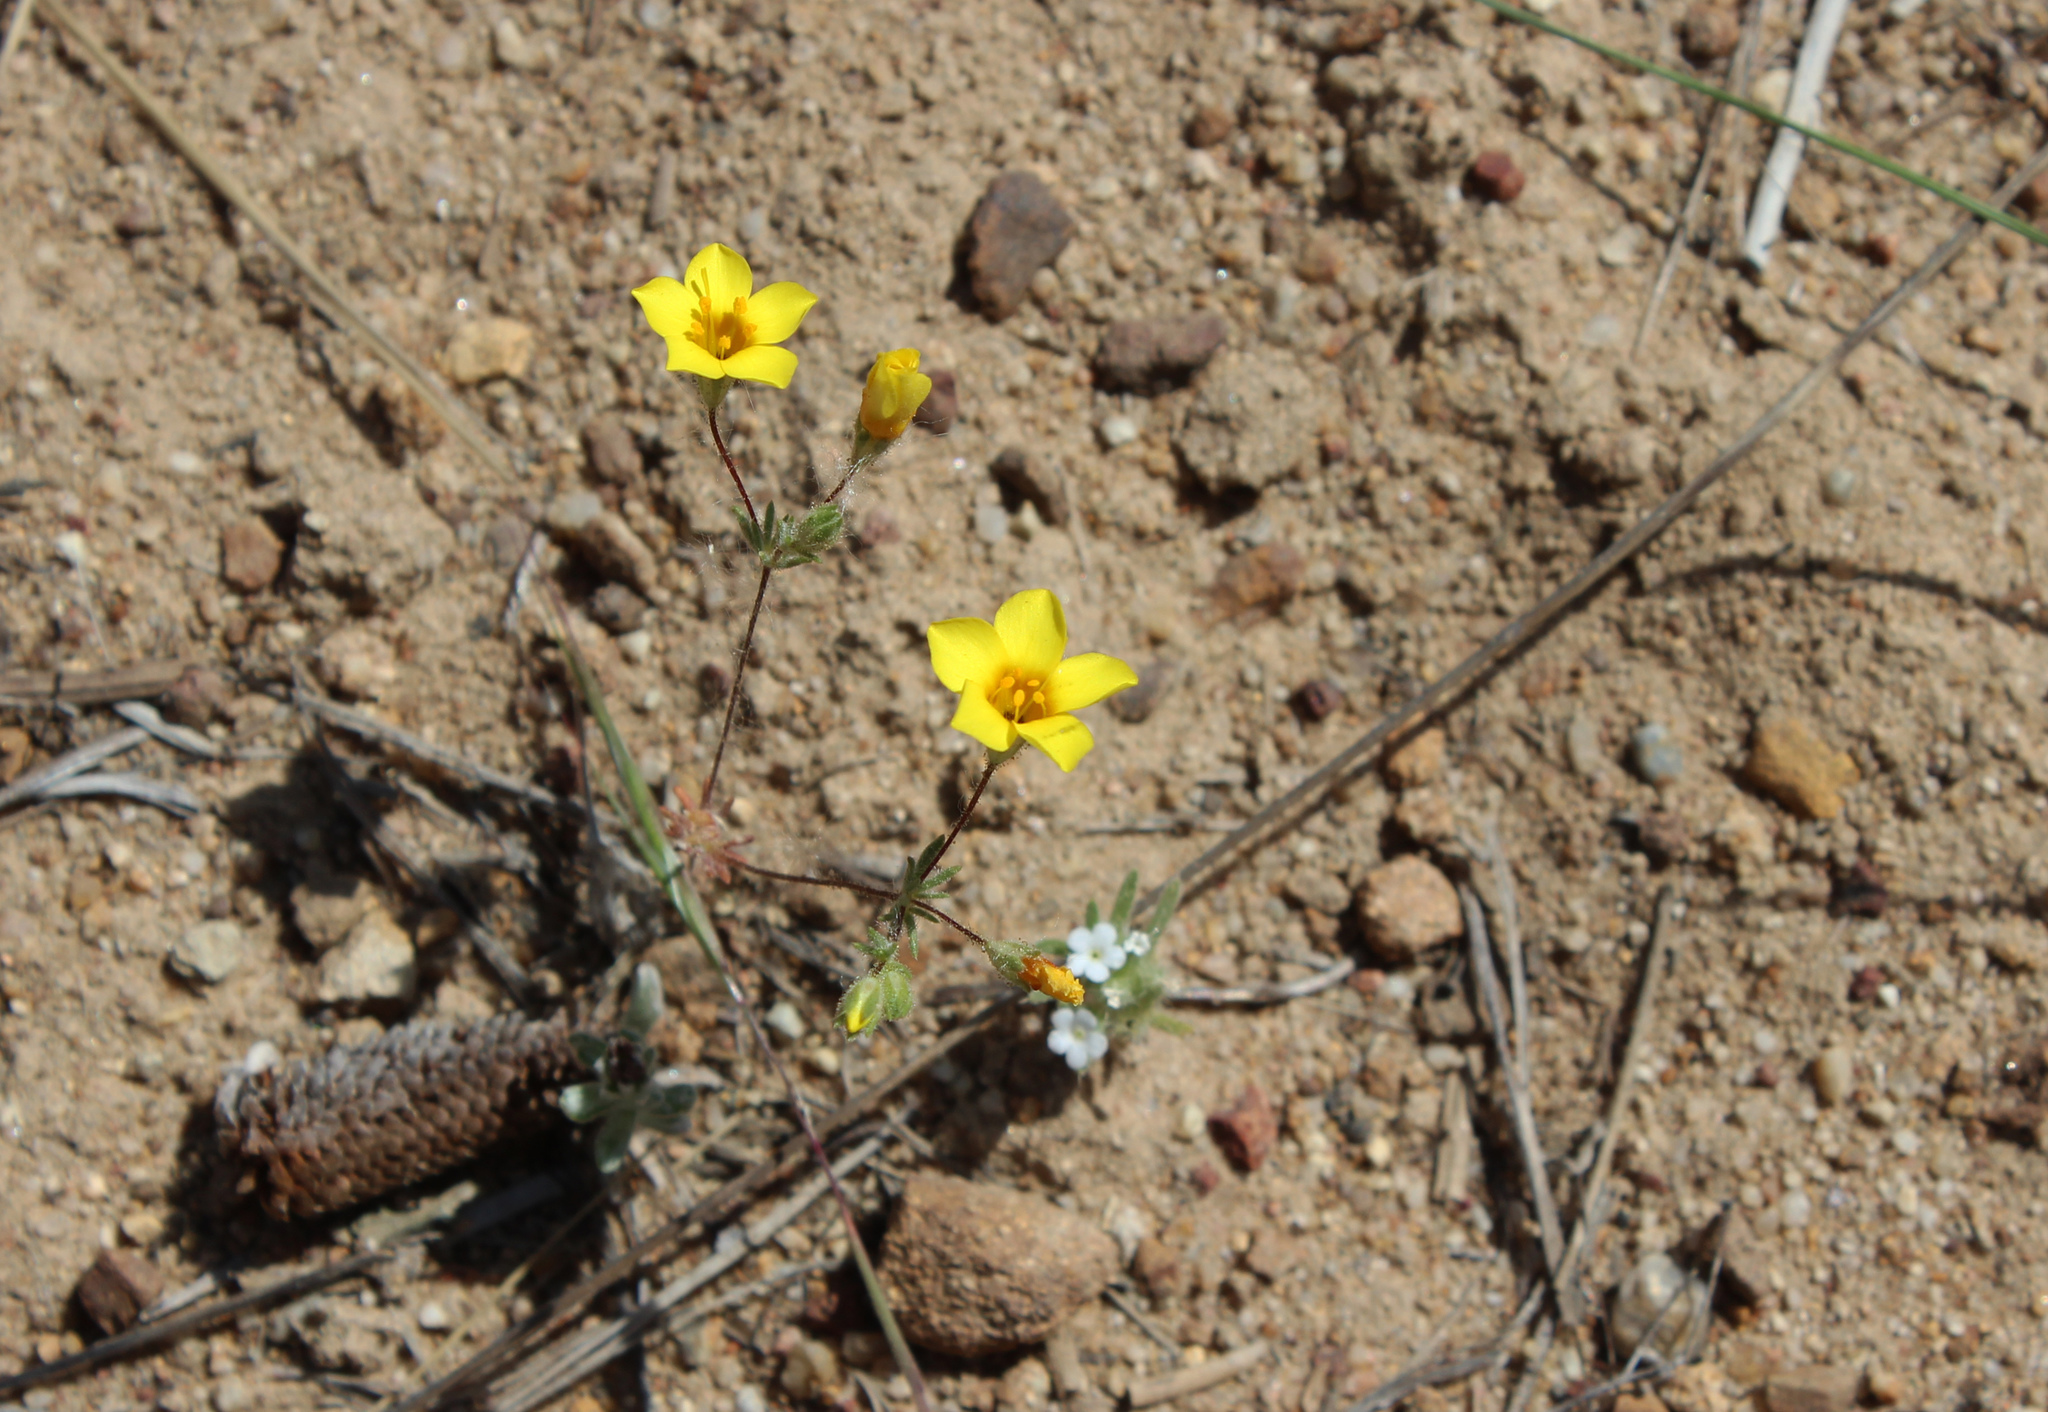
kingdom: Plantae
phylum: Tracheophyta
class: Magnoliopsida
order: Ericales
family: Polemoniaceae
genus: Leptosiphon
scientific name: Leptosiphon chrysanthus
